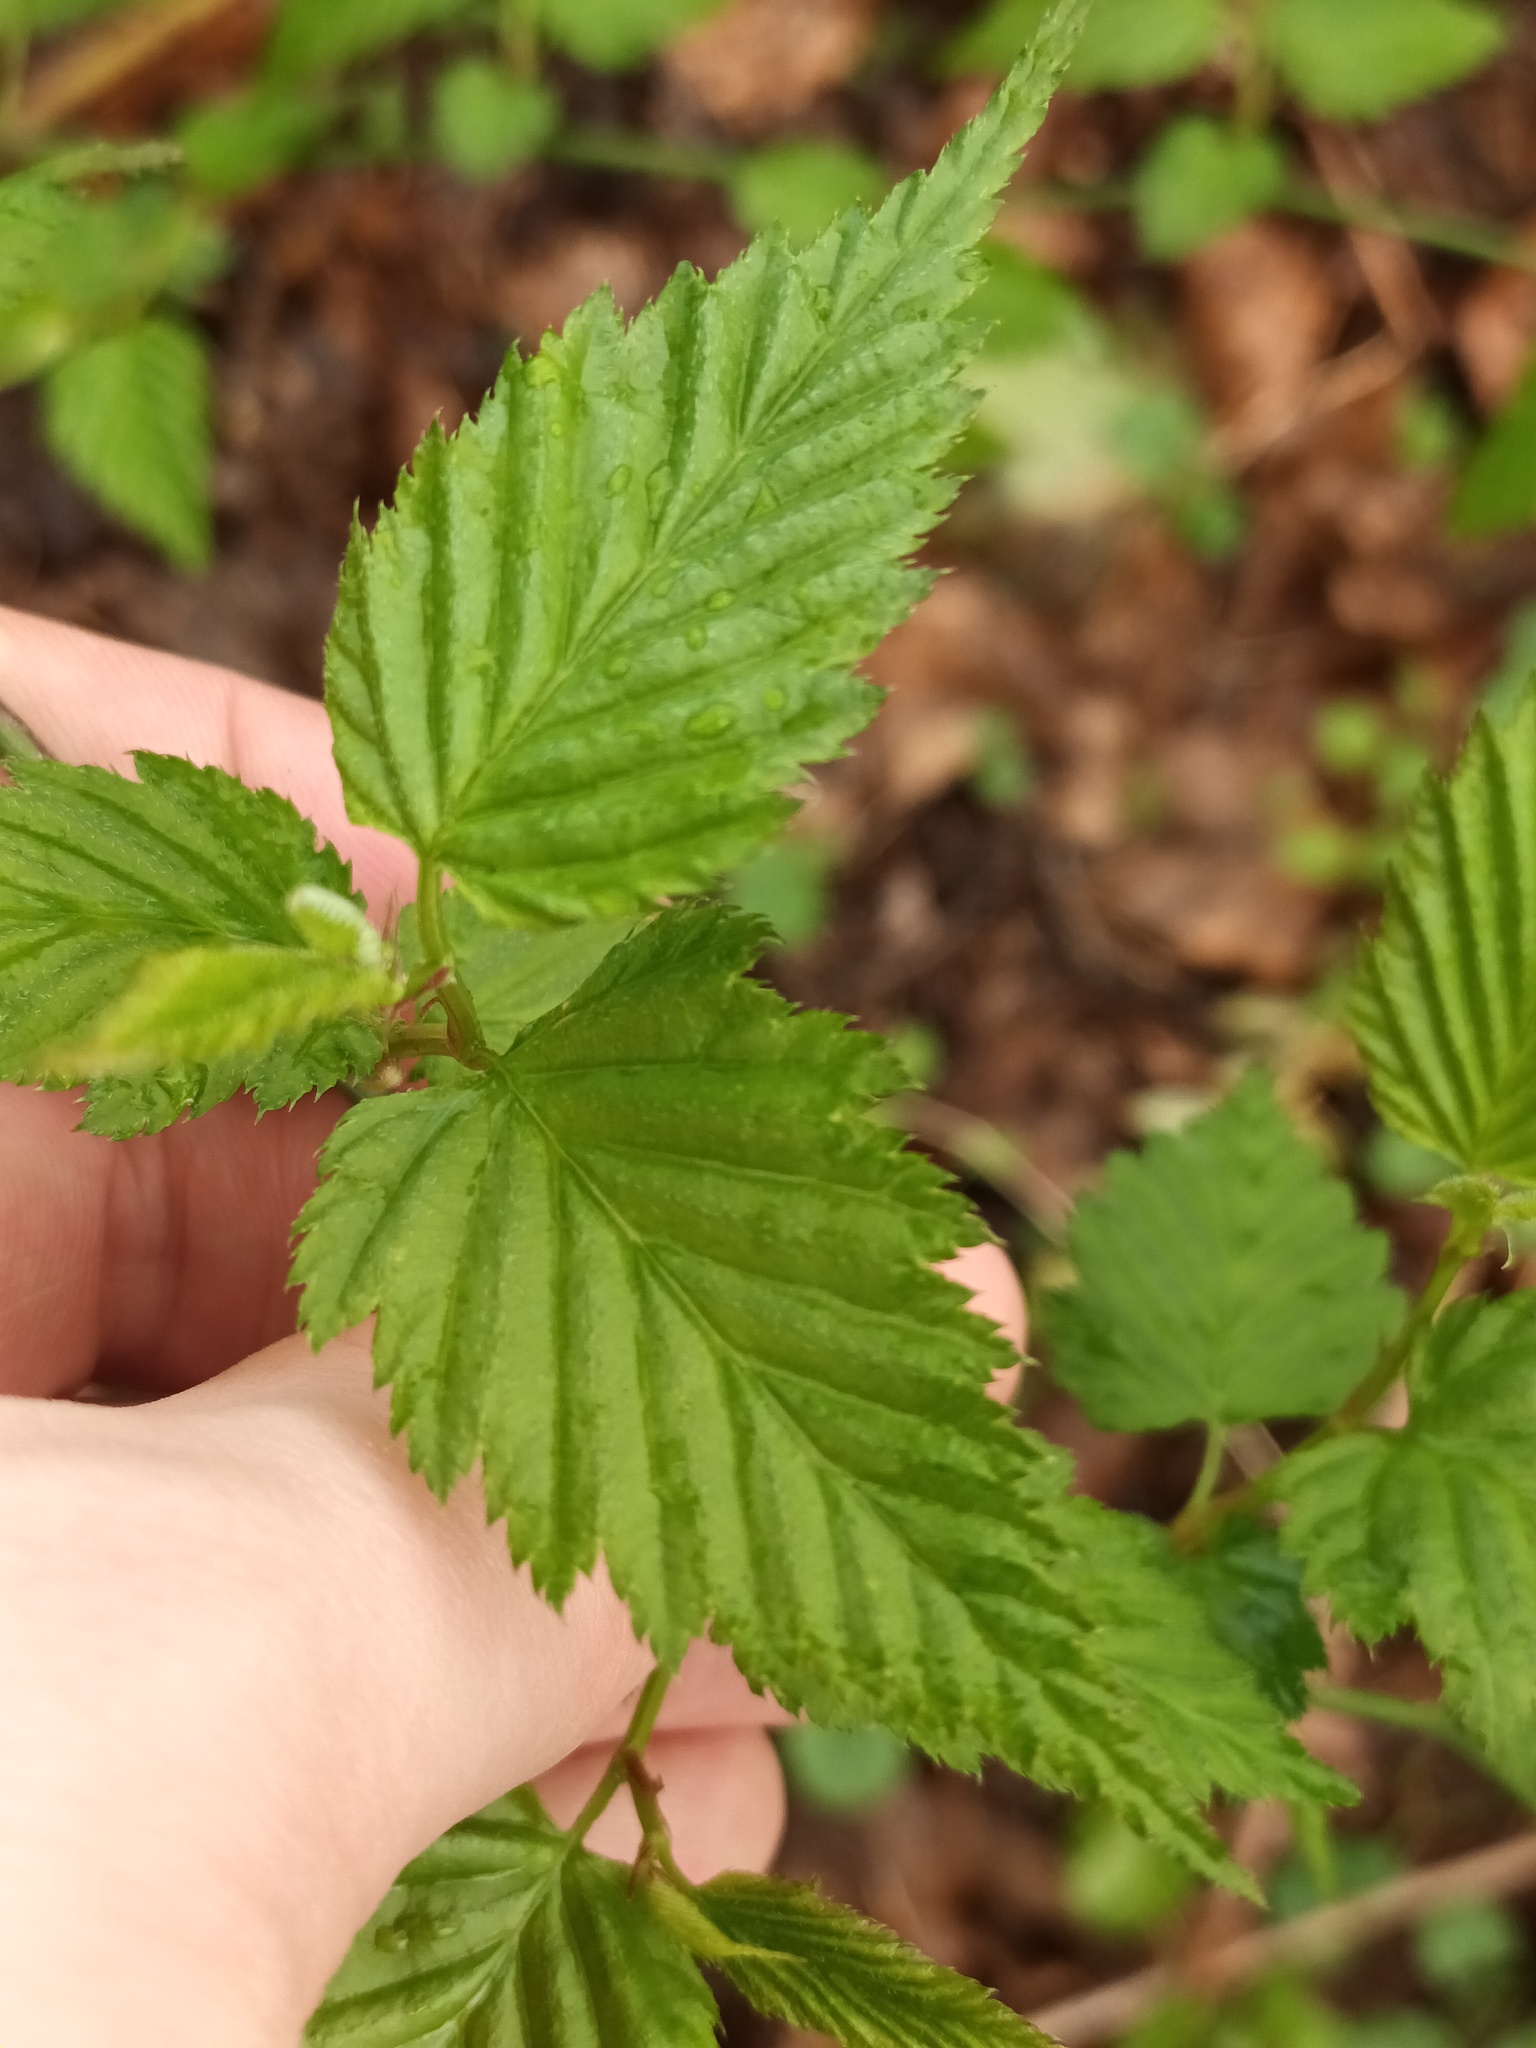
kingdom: Plantae
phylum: Tracheophyta
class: Magnoliopsida
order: Rosales
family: Rosaceae
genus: Kerria
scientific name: Kerria japonica
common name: Japanese kerria
